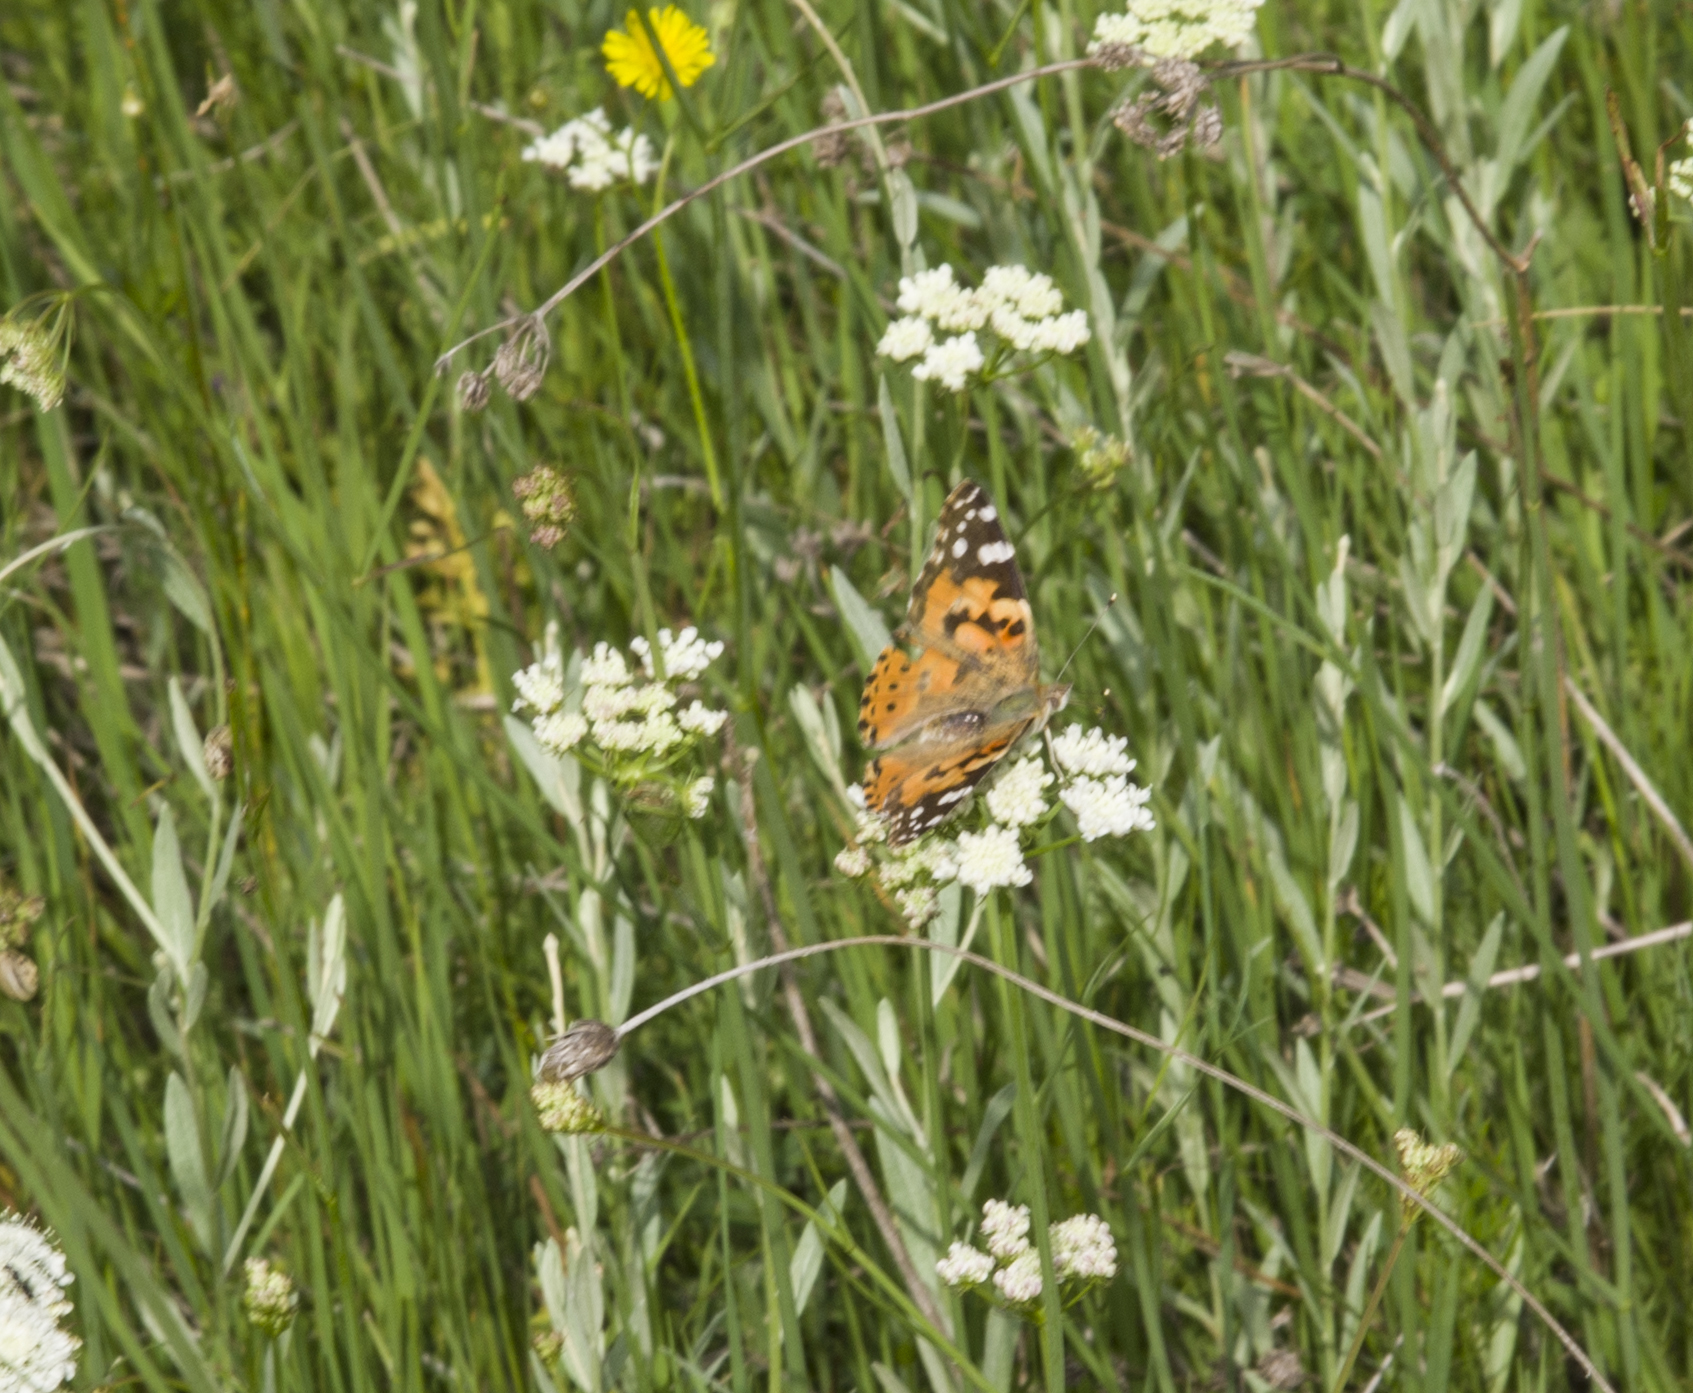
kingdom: Animalia
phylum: Arthropoda
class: Insecta
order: Lepidoptera
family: Nymphalidae
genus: Vanessa
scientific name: Vanessa cardui
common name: Painted lady
